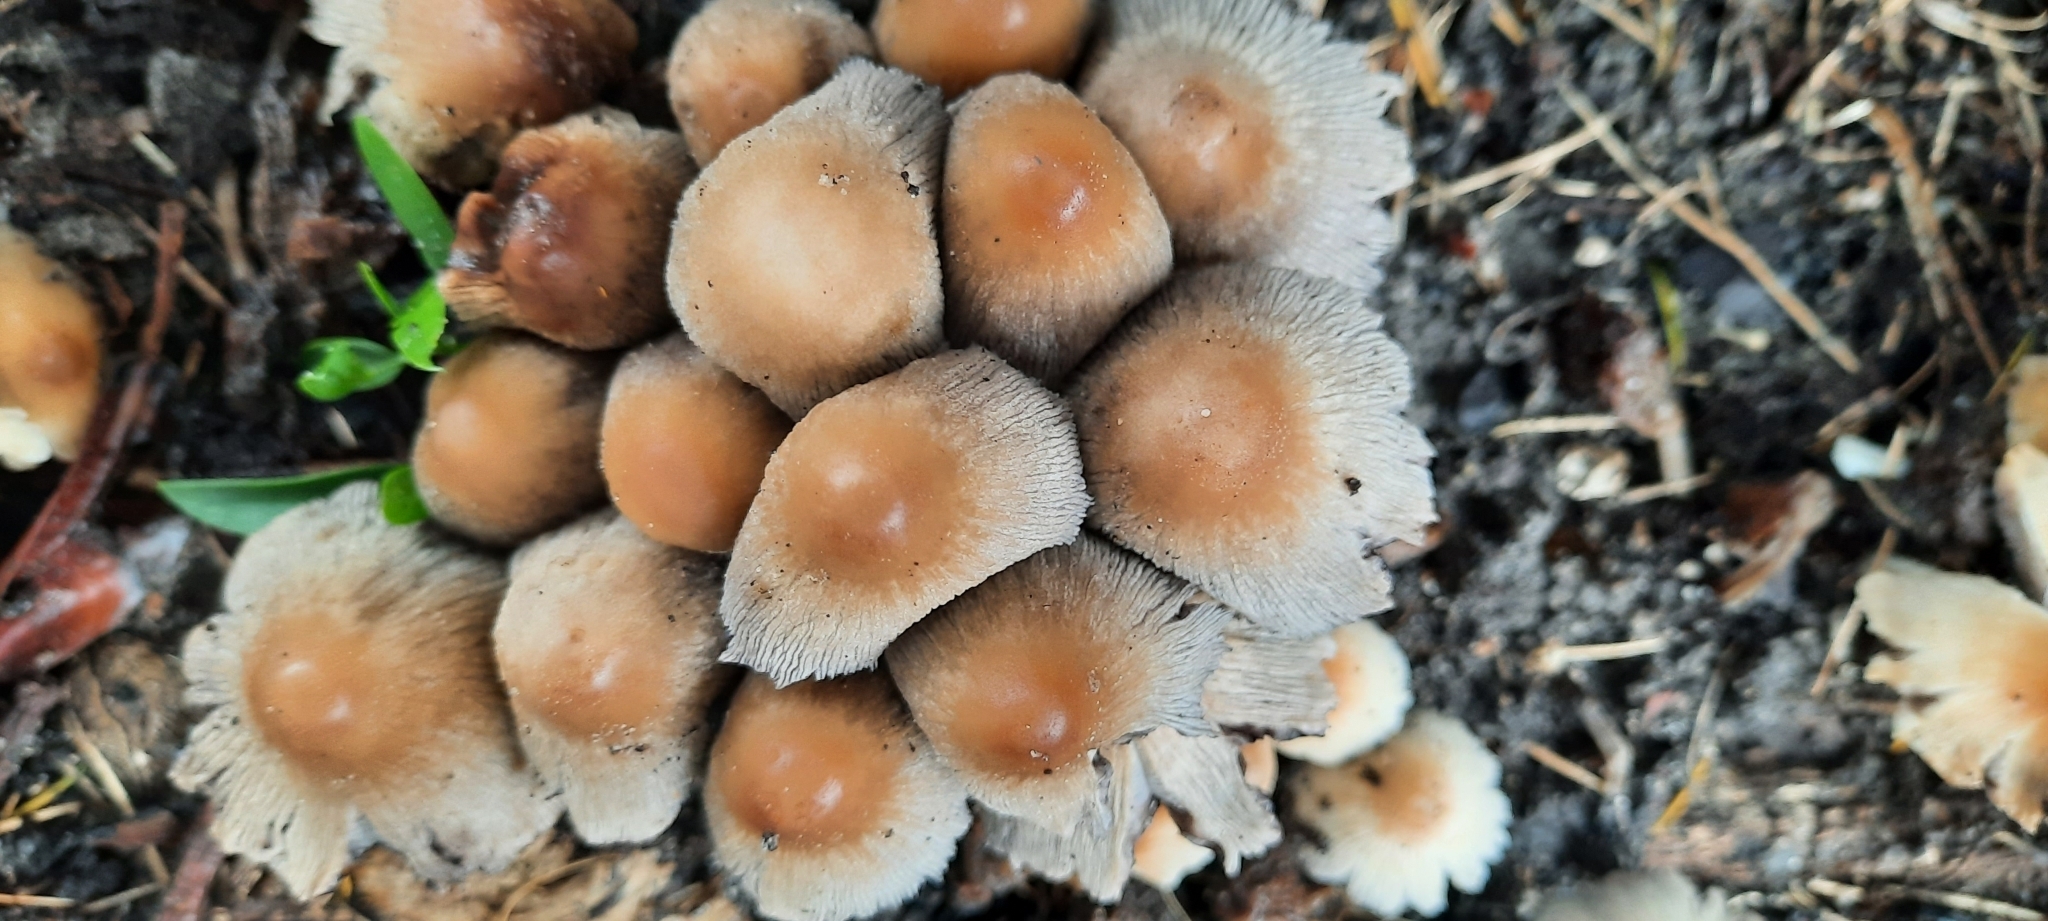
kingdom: Fungi
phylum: Basidiomycota
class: Agaricomycetes
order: Agaricales
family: Psathyrellaceae
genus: Coprinellus
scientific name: Coprinellus micaceus
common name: Glistening ink-cap
